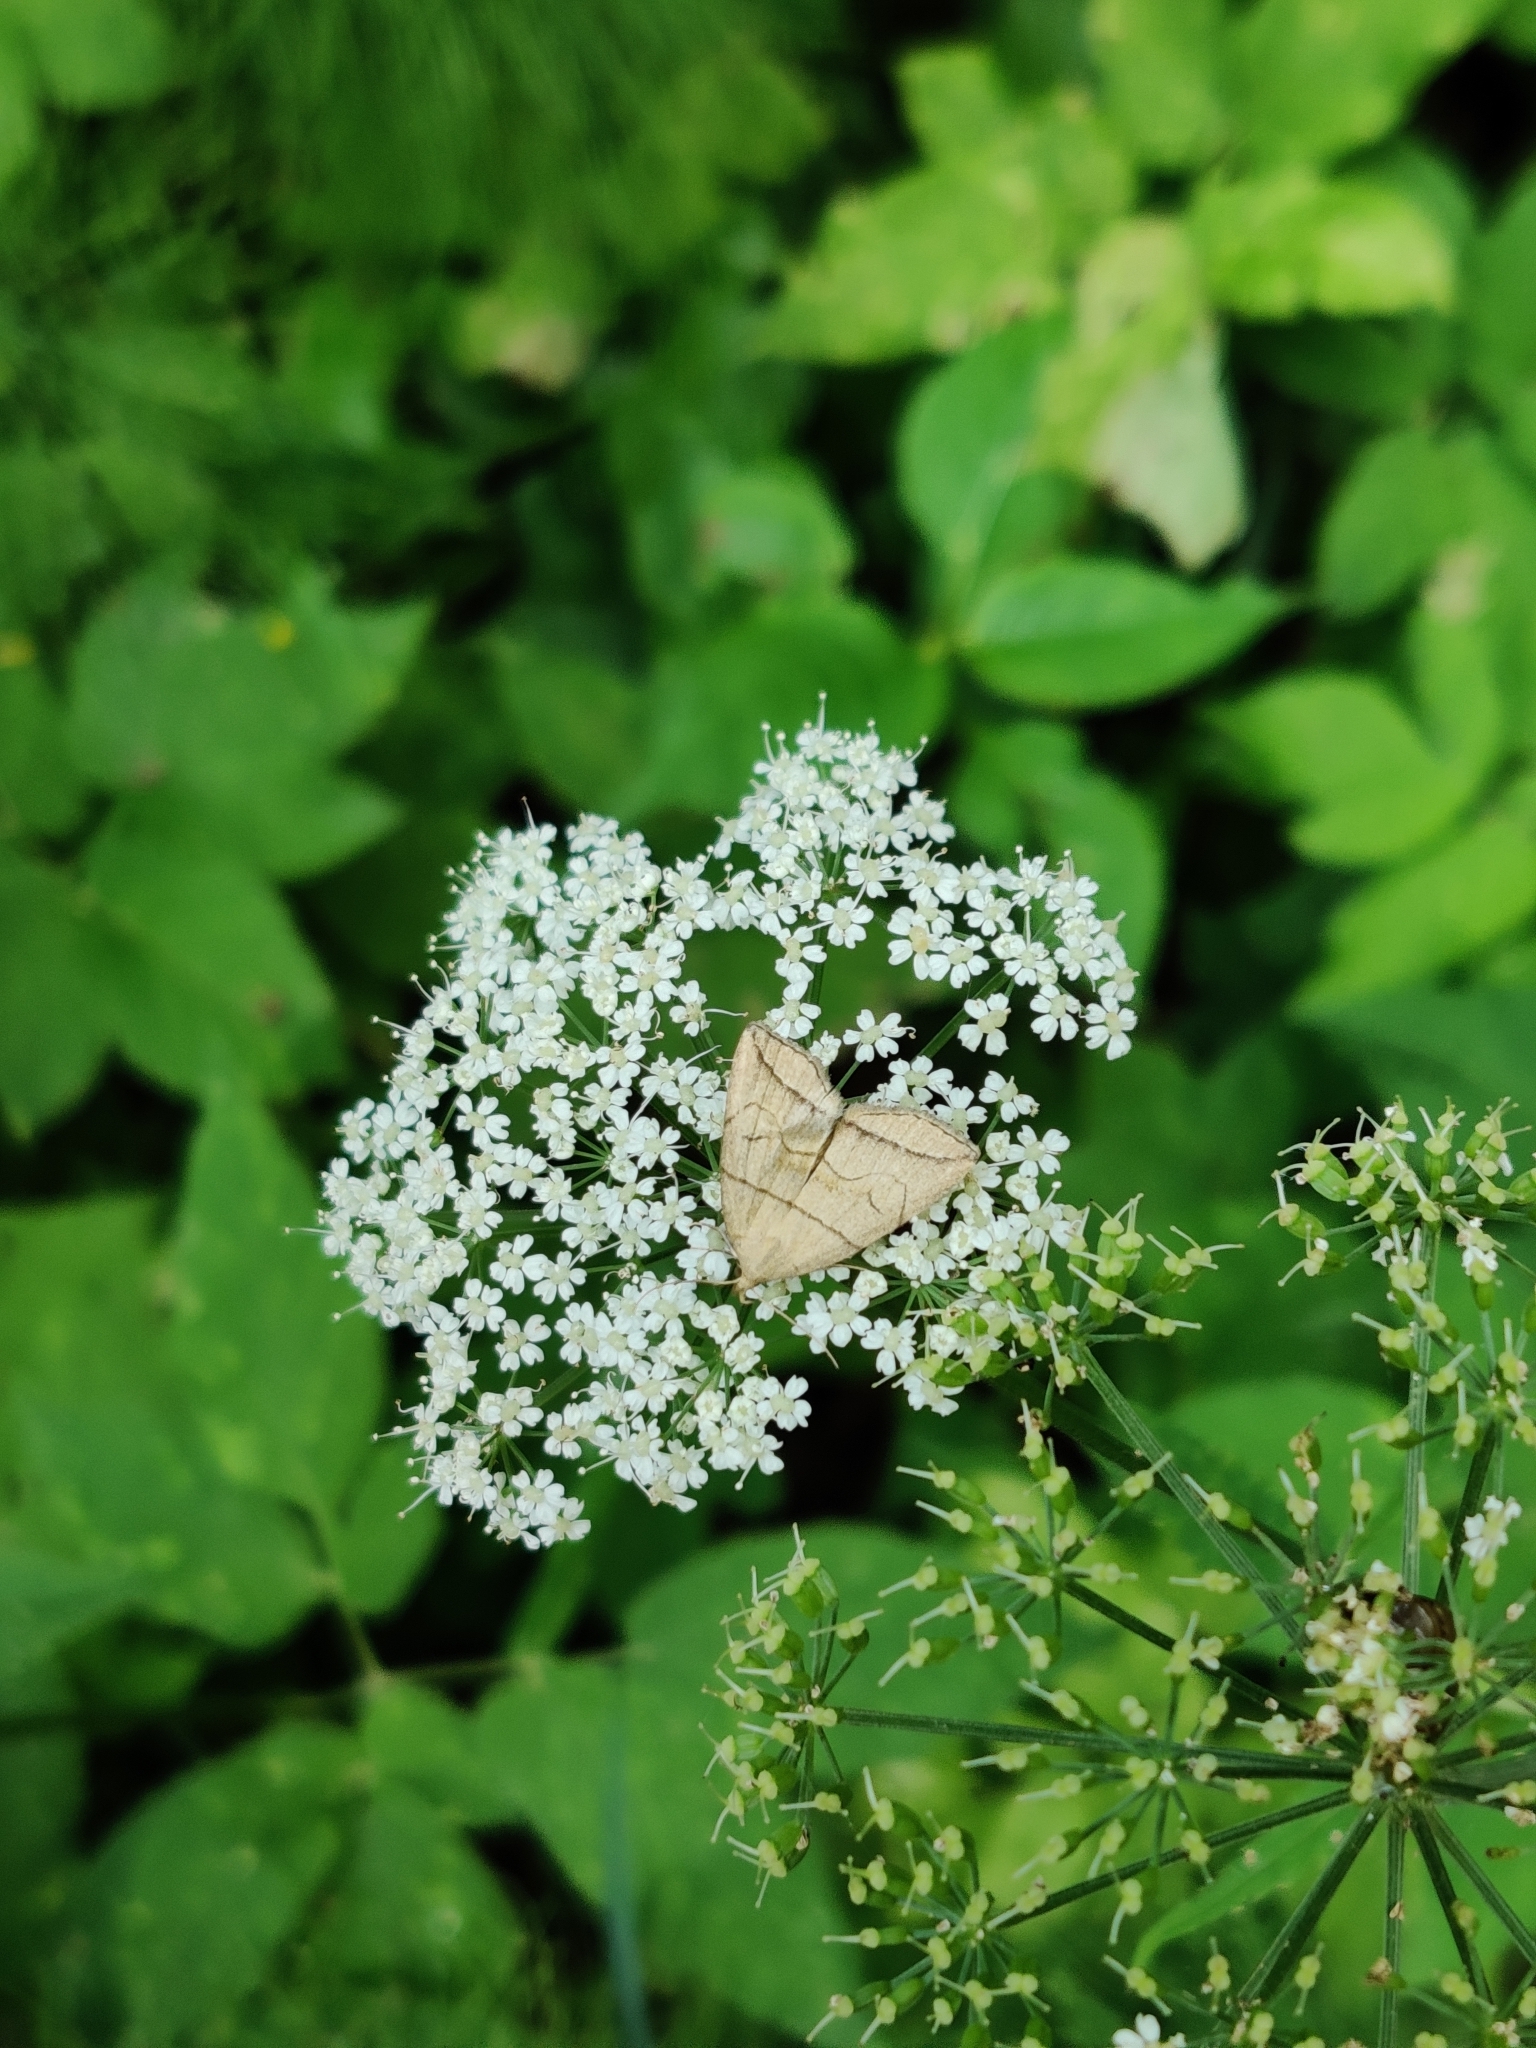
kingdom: Animalia
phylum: Arthropoda
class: Insecta
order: Lepidoptera
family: Erebidae
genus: Herminia
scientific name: Herminia grisealis
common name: Small fan-foot
